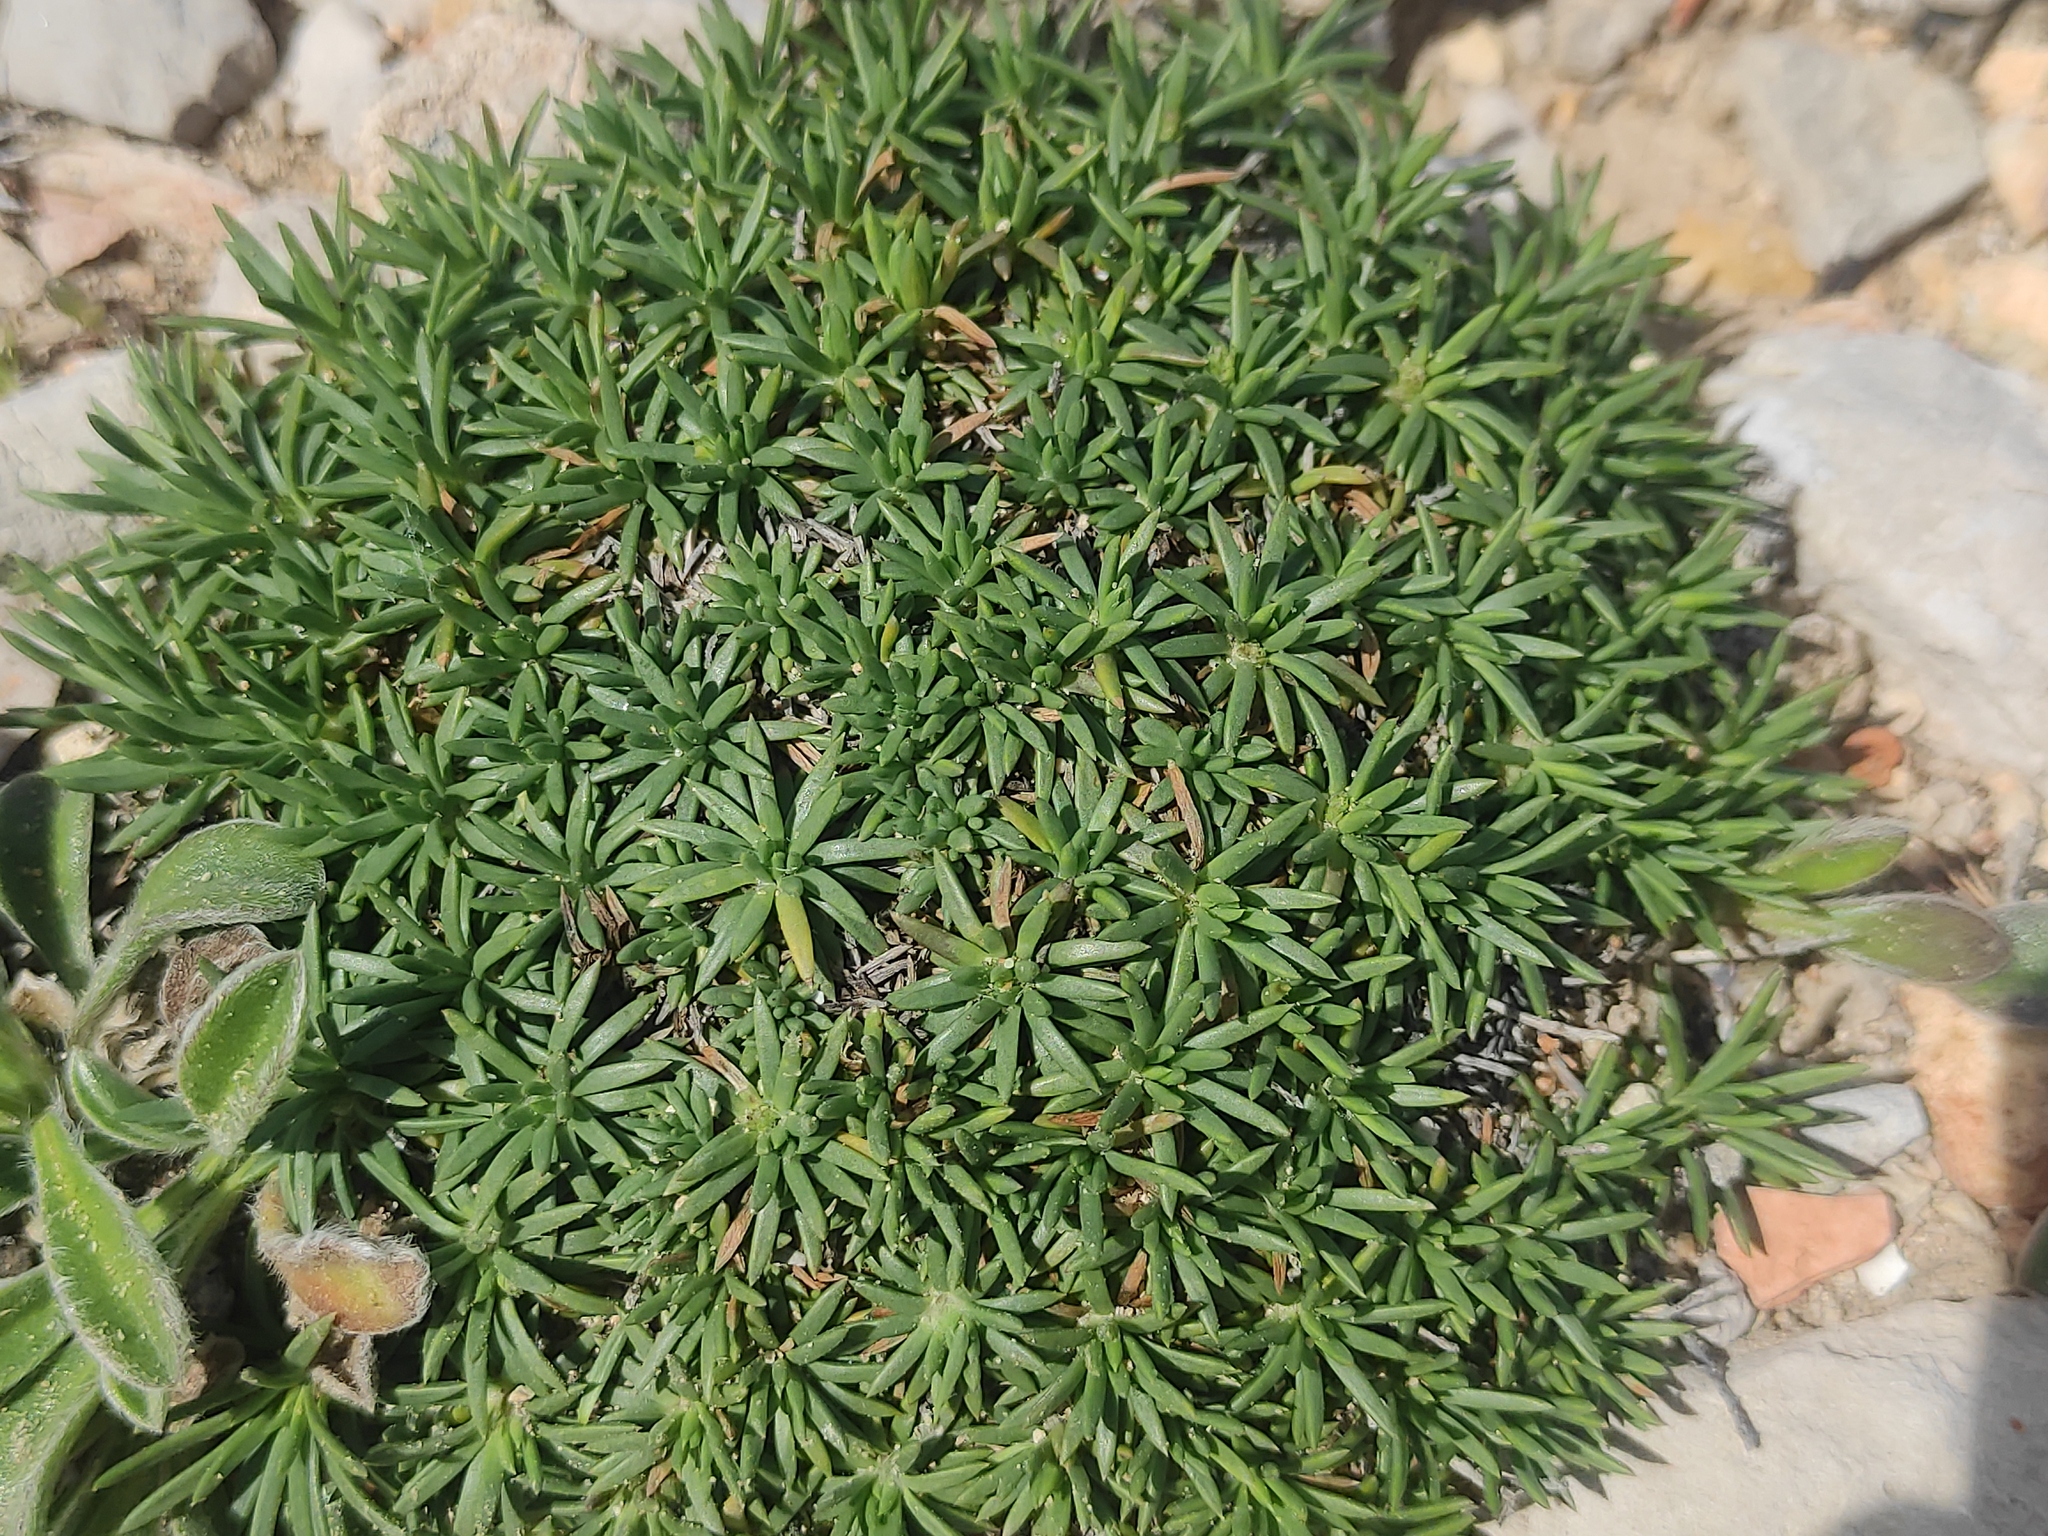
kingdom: Plantae
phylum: Tracheophyta
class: Magnoliopsida
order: Lamiales
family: Plantaginaceae
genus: Plantago
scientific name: Plantago subulata
